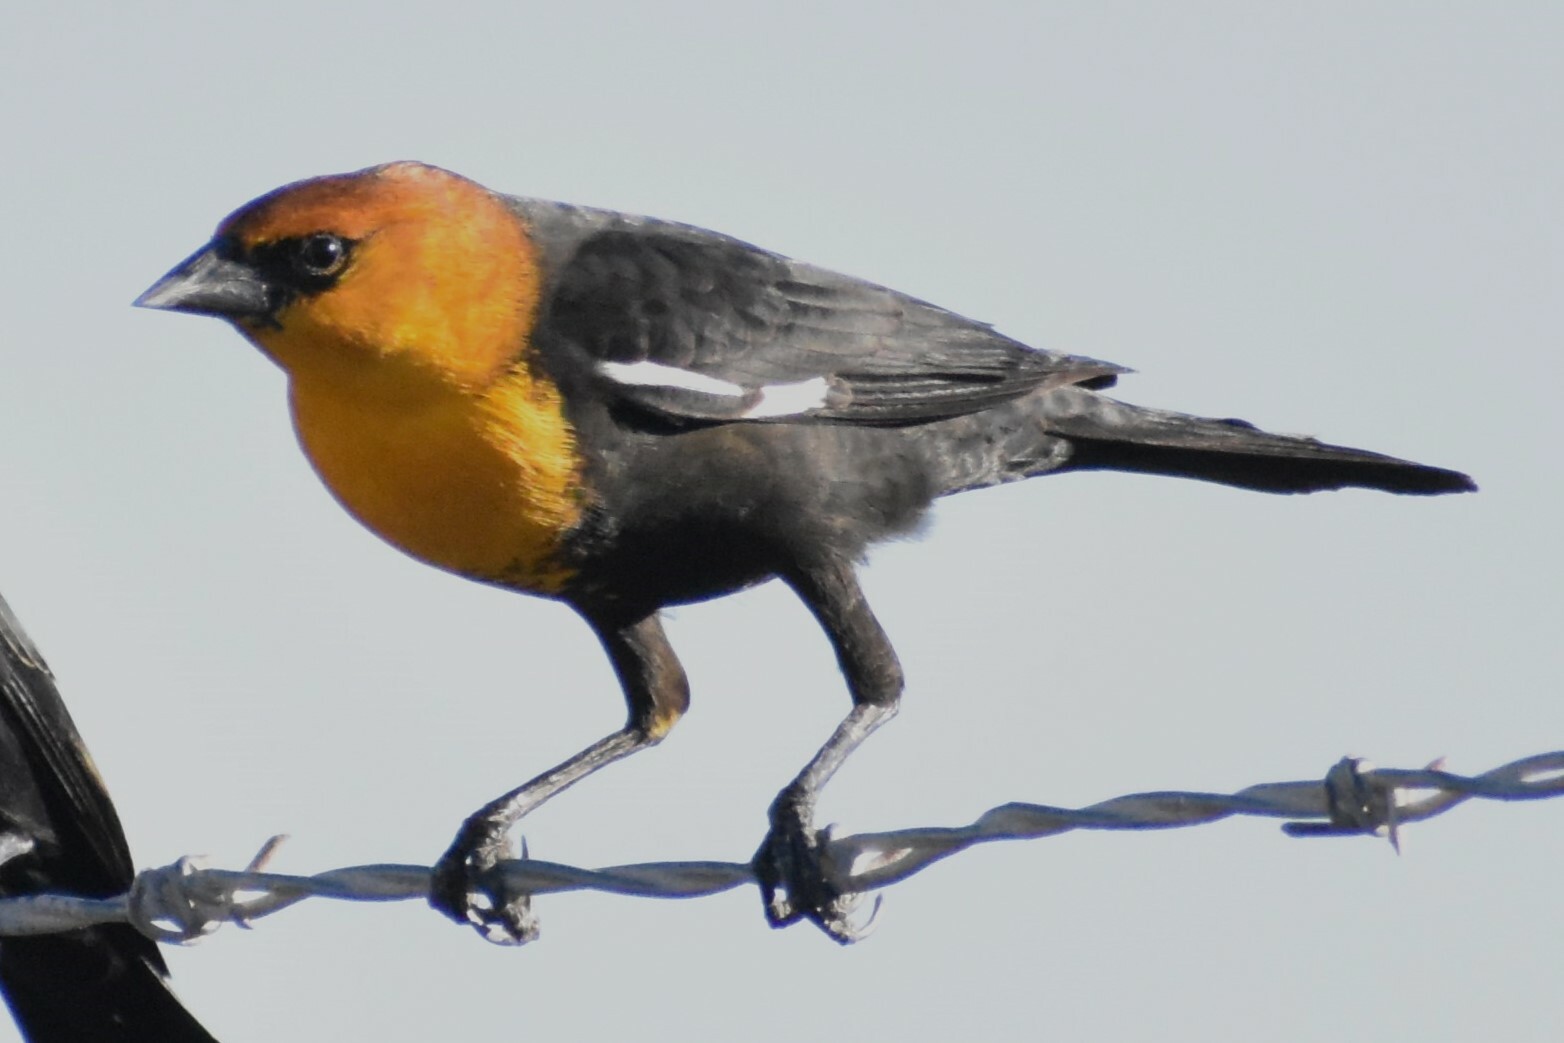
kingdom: Animalia
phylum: Chordata
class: Aves
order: Passeriformes
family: Icteridae
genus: Xanthocephalus
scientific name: Xanthocephalus xanthocephalus
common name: Yellow-headed blackbird
